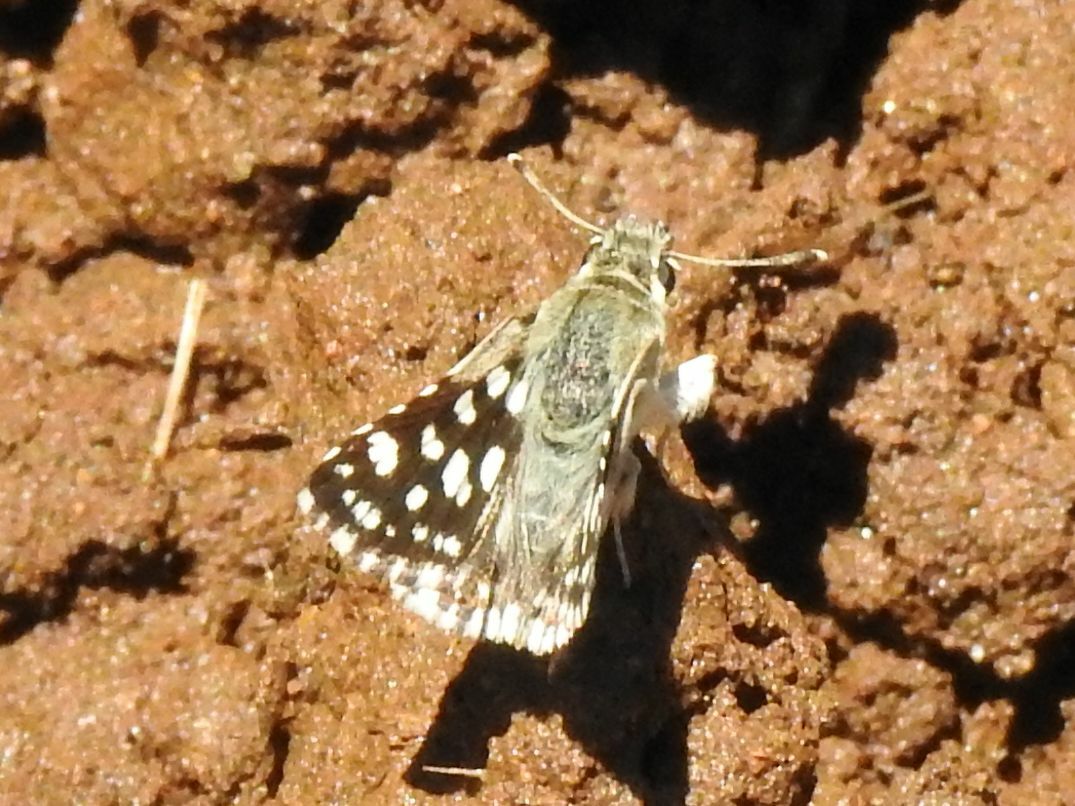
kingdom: Animalia
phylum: Arthropoda
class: Insecta
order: Lepidoptera
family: Hesperiidae
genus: Spialia
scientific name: Spialia spio
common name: Mountain sandman
